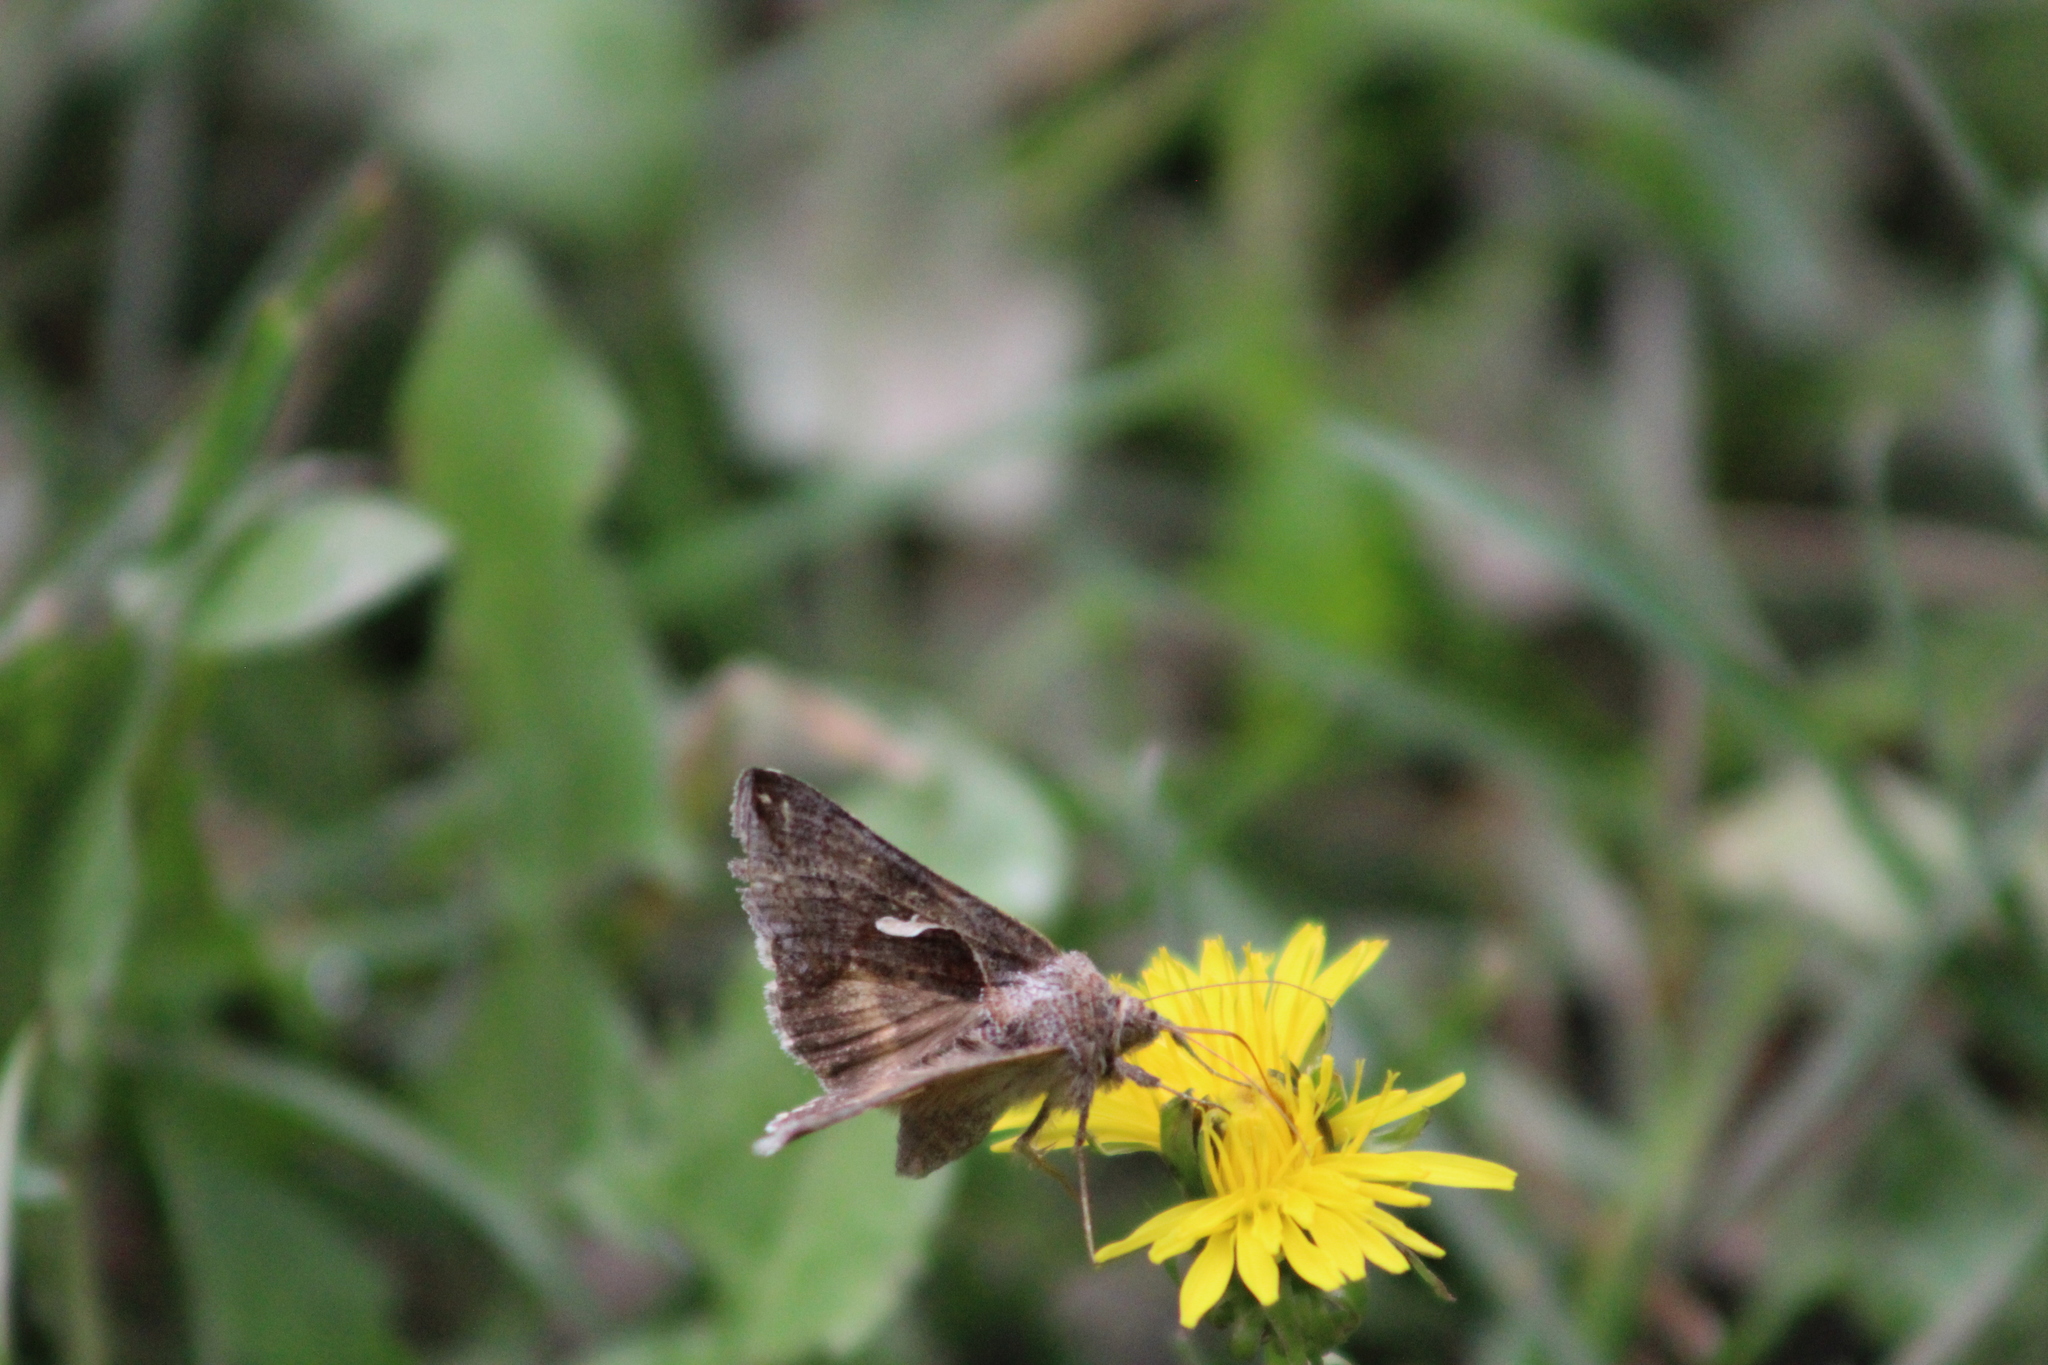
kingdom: Animalia
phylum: Arthropoda
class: Insecta
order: Lepidoptera
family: Noctuidae
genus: Anagrapha
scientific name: Anagrapha falcifera
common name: Celery looper
